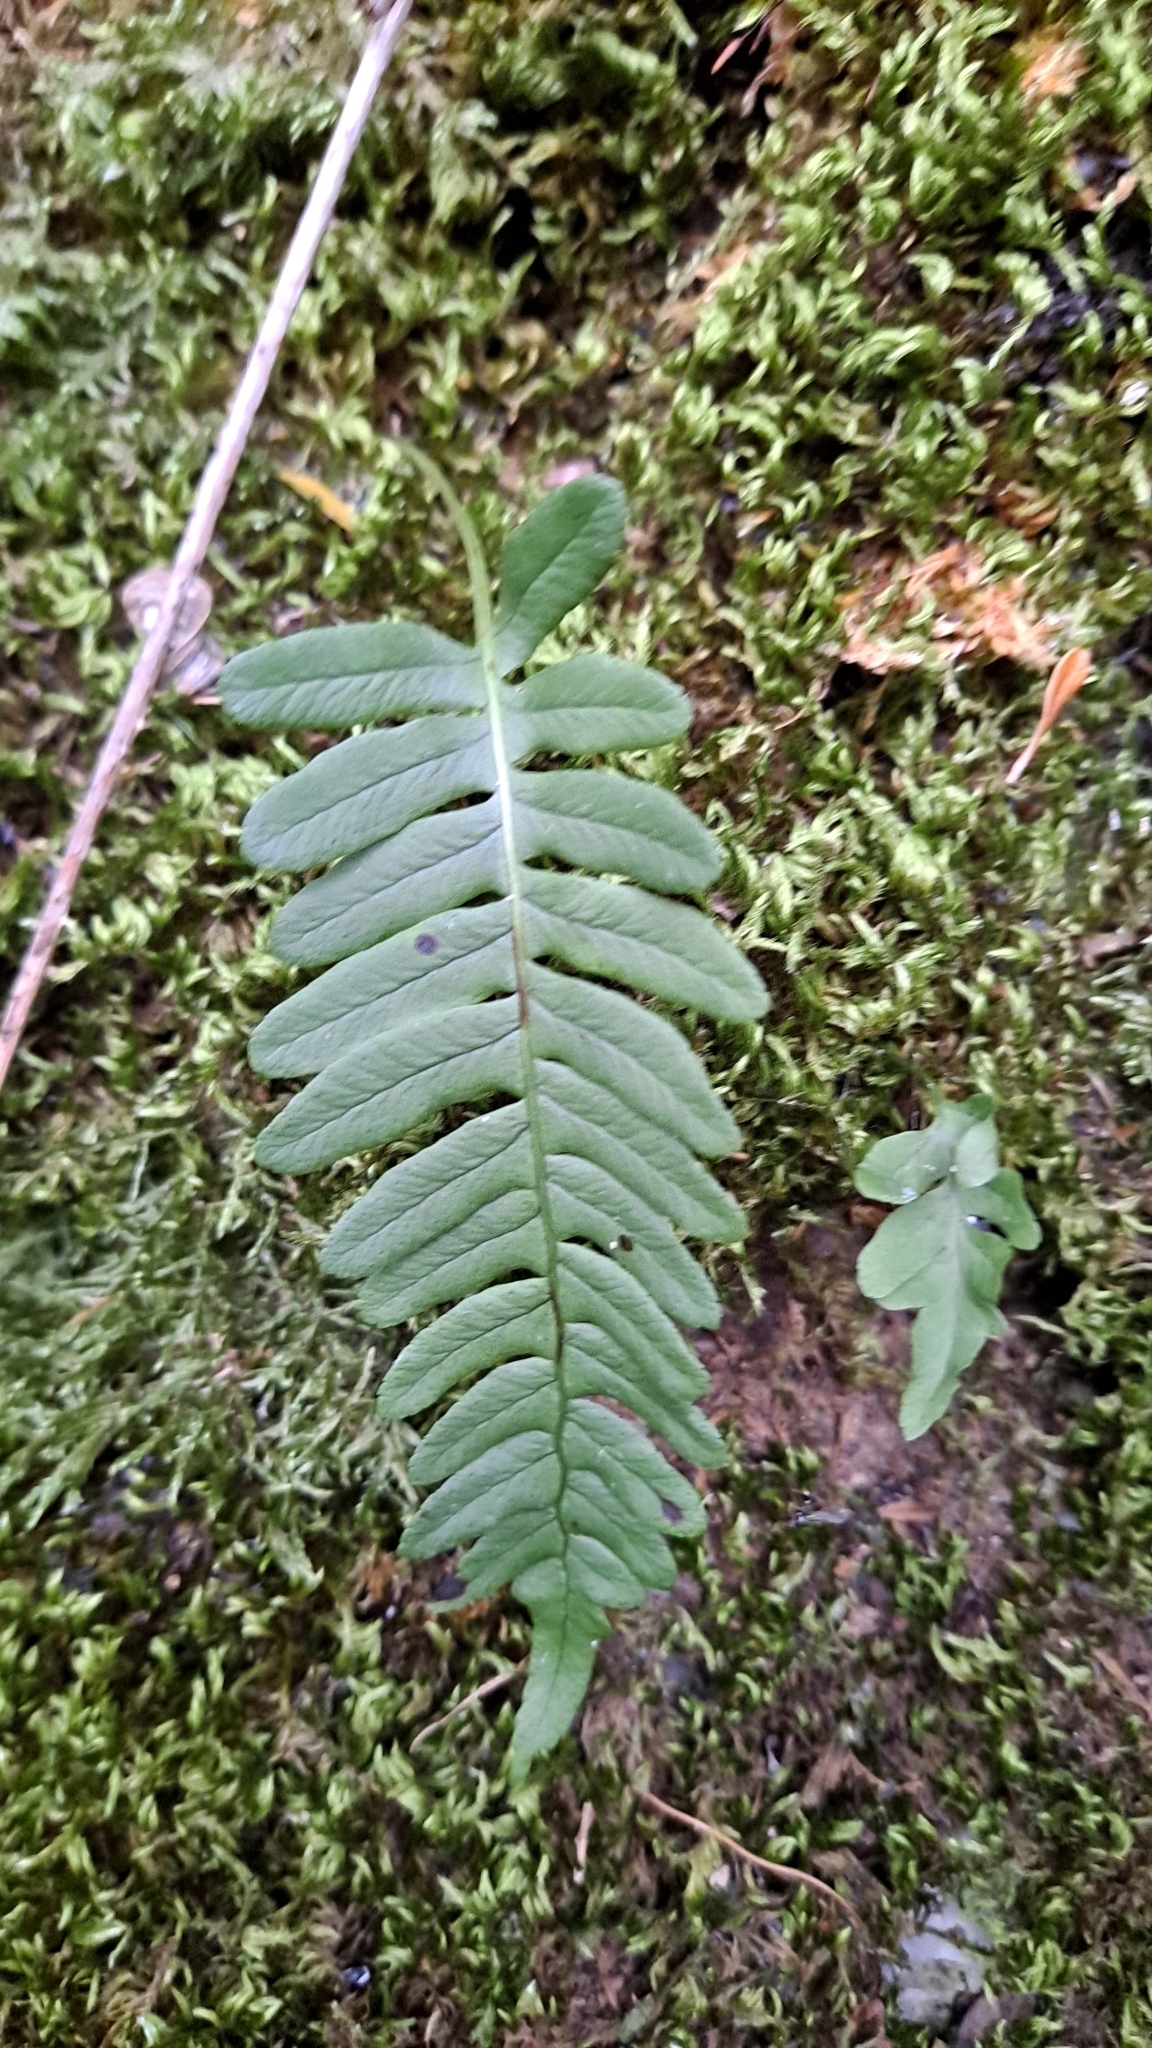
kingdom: Plantae
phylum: Tracheophyta
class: Polypodiopsida
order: Polypodiales
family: Polypodiaceae
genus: Polypodium
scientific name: Polypodium vulgare
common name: Common polypody
